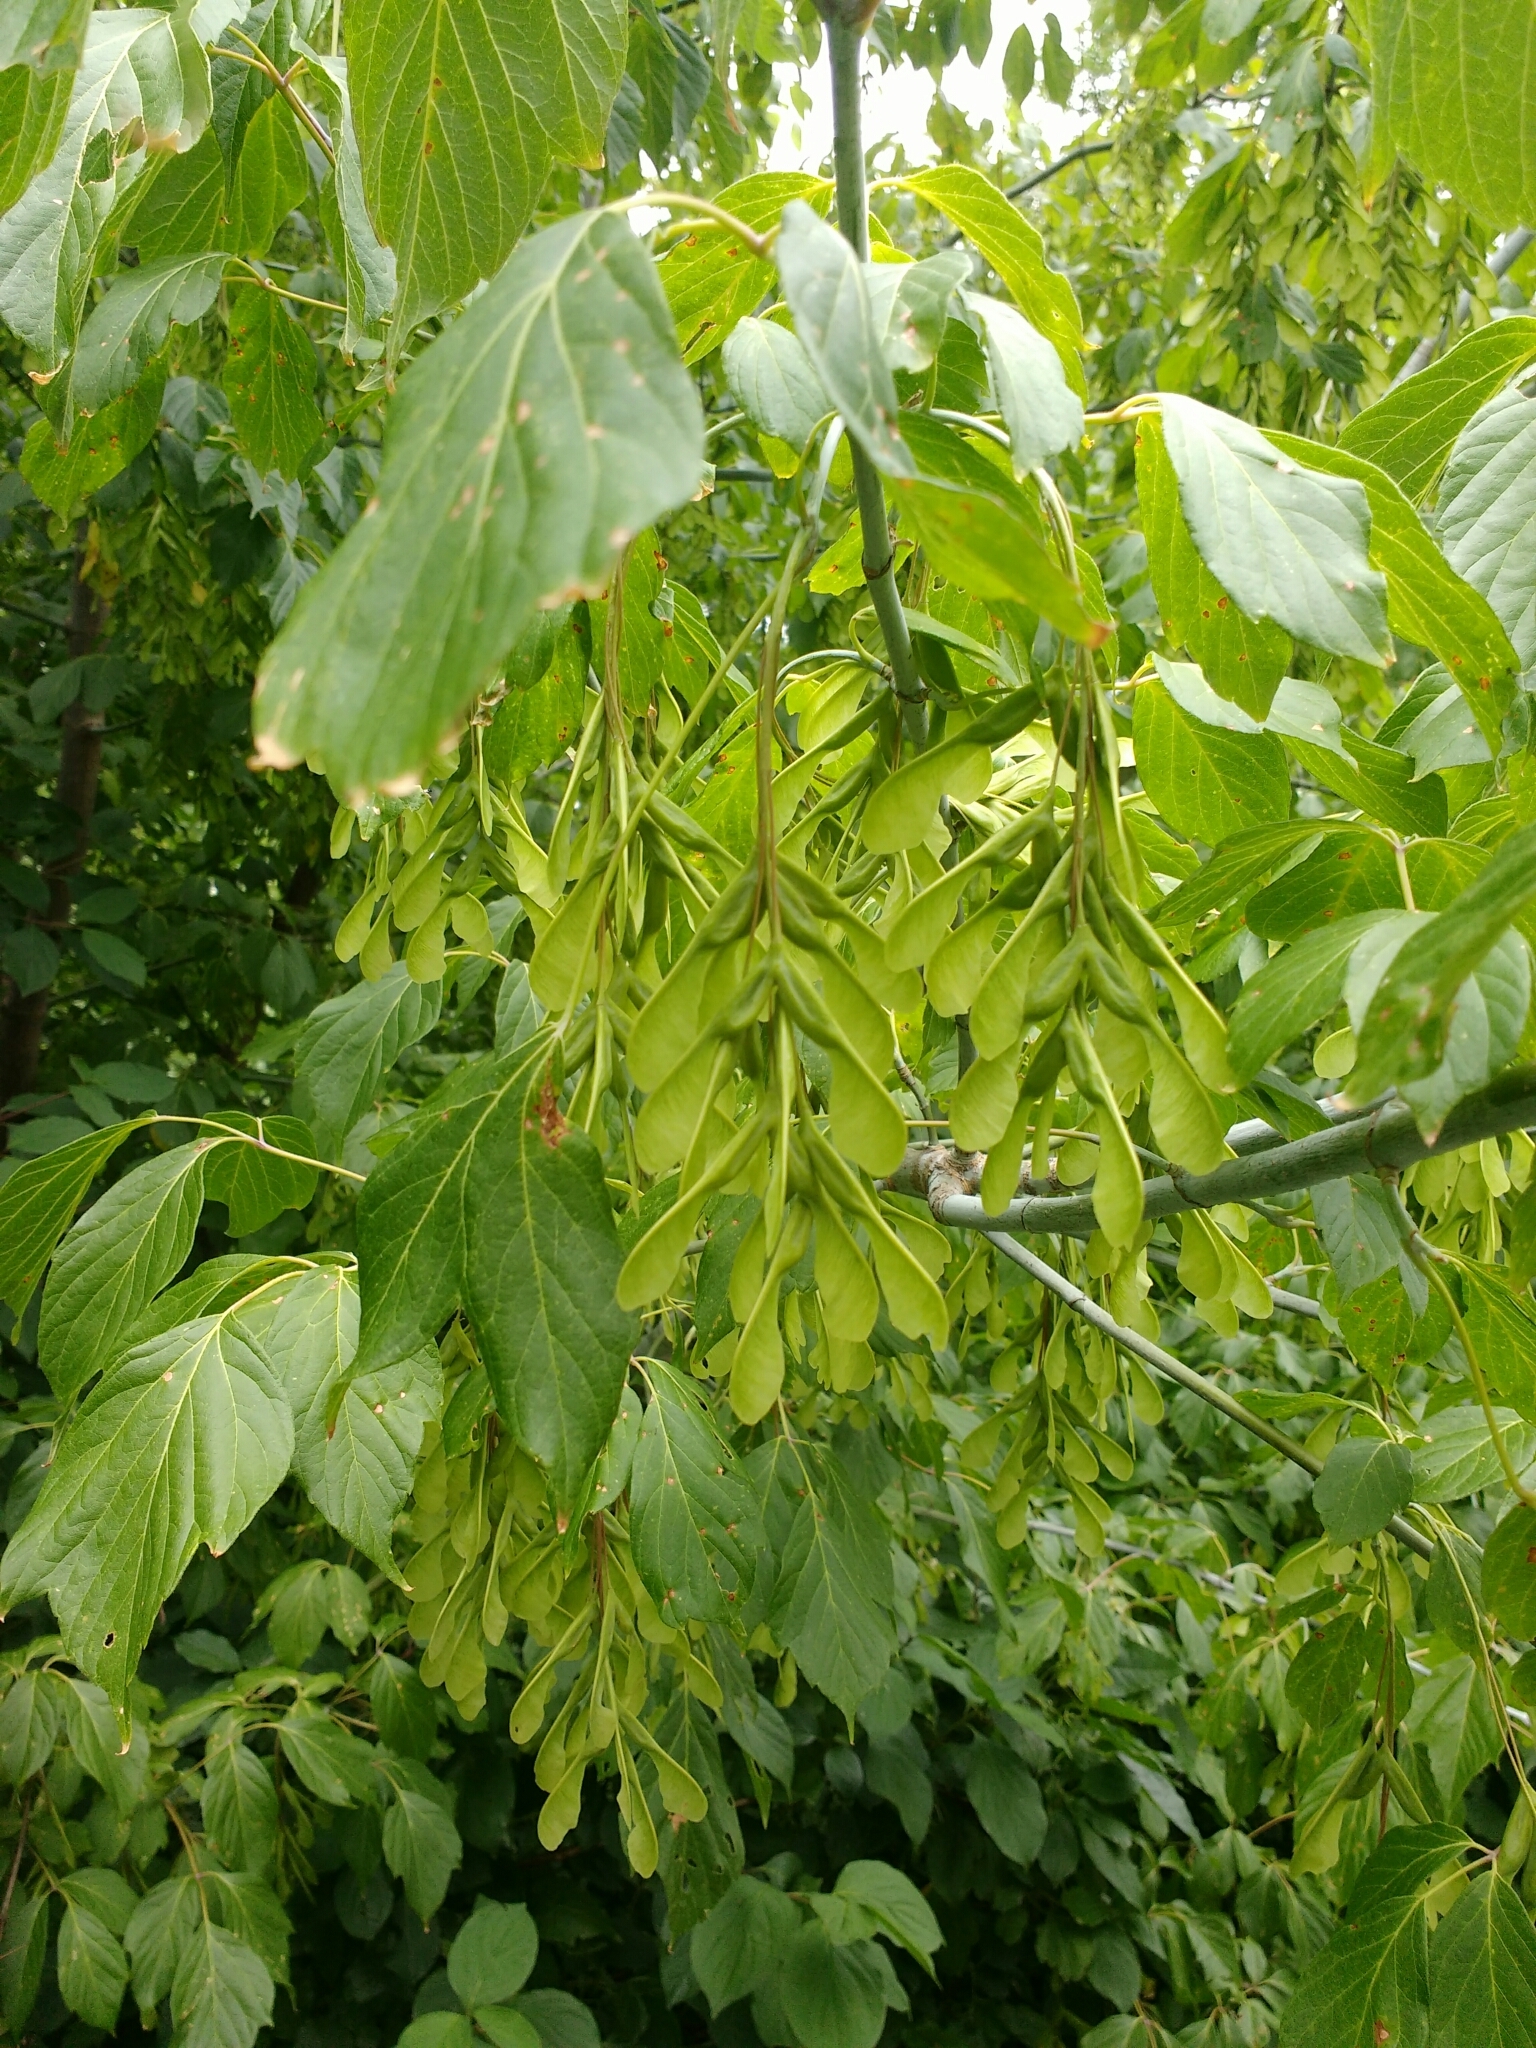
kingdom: Plantae
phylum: Tracheophyta
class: Magnoliopsida
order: Sapindales
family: Sapindaceae
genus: Acer
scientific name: Acer negundo
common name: Ashleaf maple
